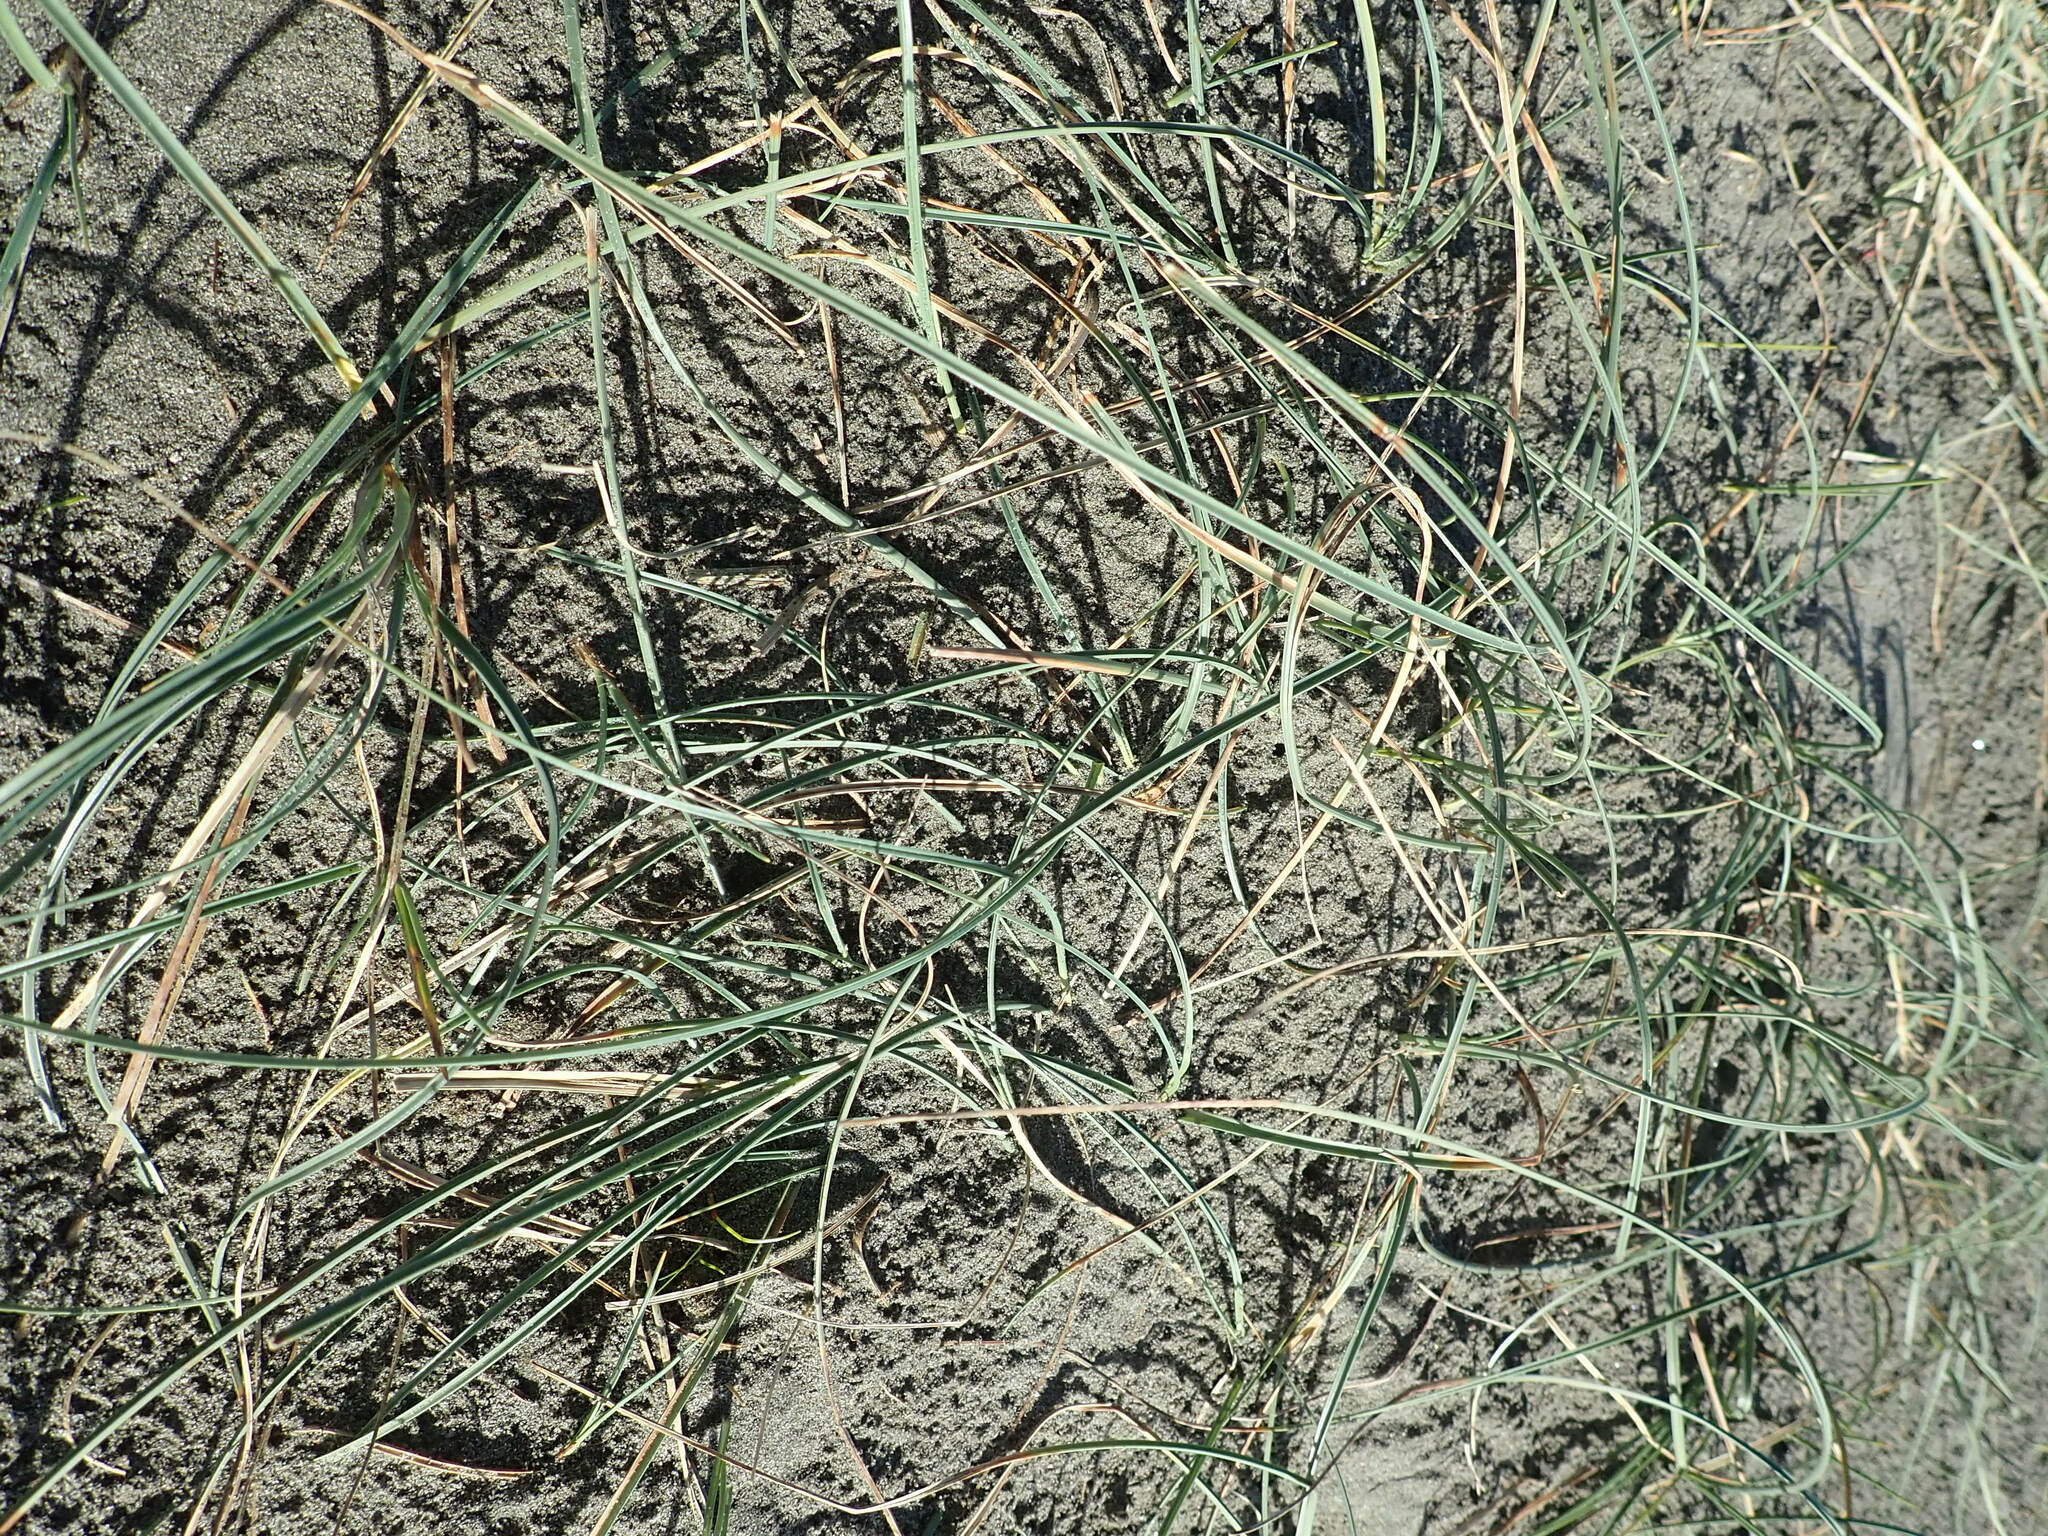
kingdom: Plantae
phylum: Tracheophyta
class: Liliopsida
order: Poales
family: Cyperaceae
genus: Carex
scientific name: Carex pumila
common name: Dwarf sedge
